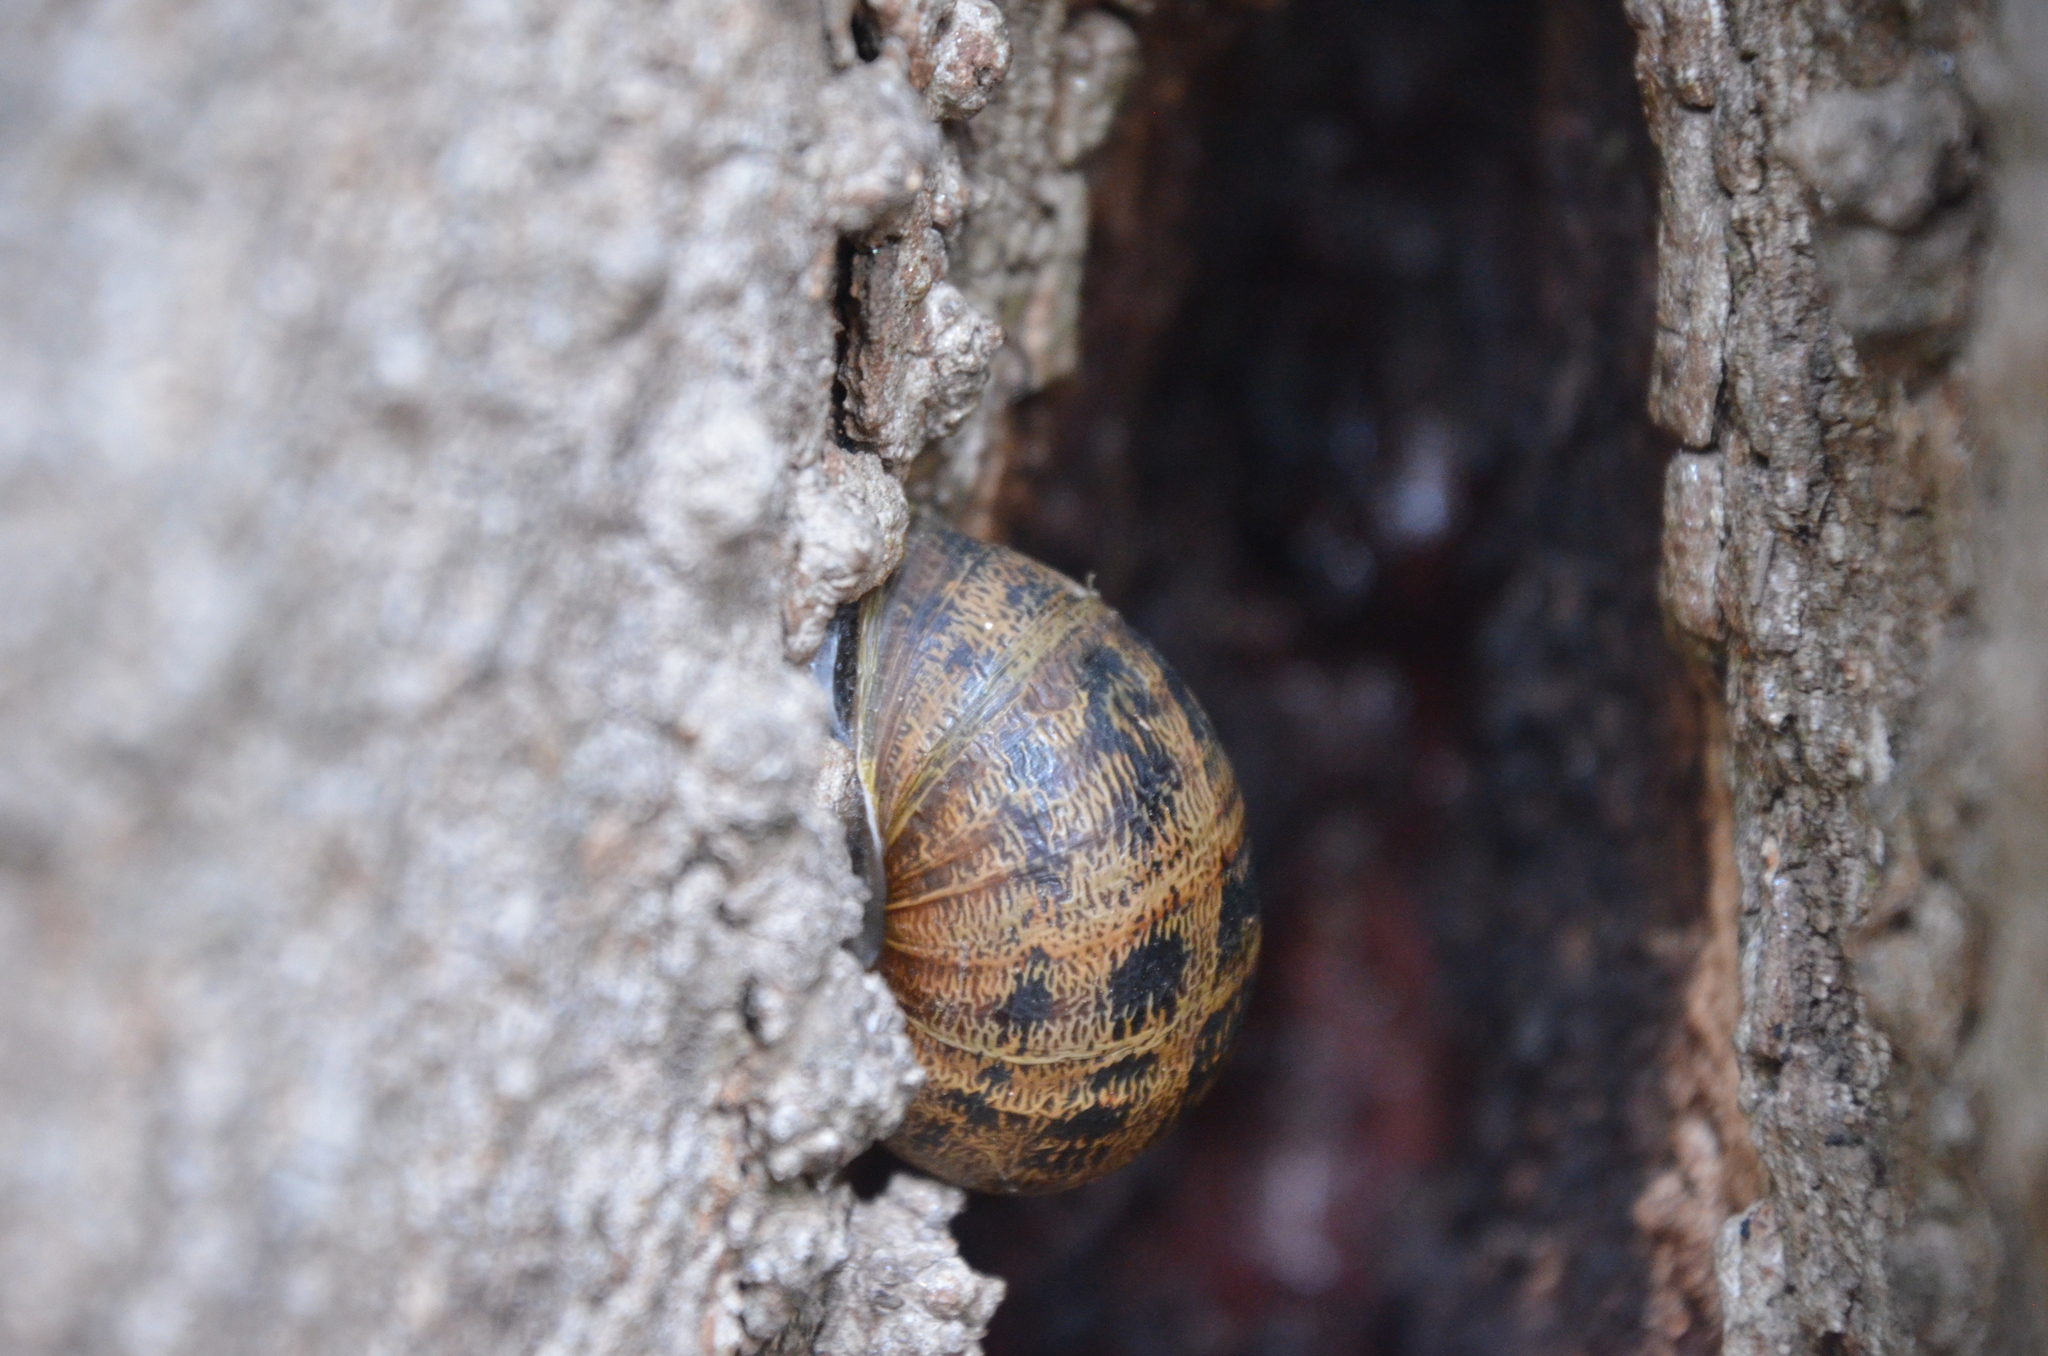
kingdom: Animalia
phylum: Mollusca
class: Gastropoda
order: Stylommatophora
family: Helicidae
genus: Cornu
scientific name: Cornu aspersum
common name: Brown garden snail
